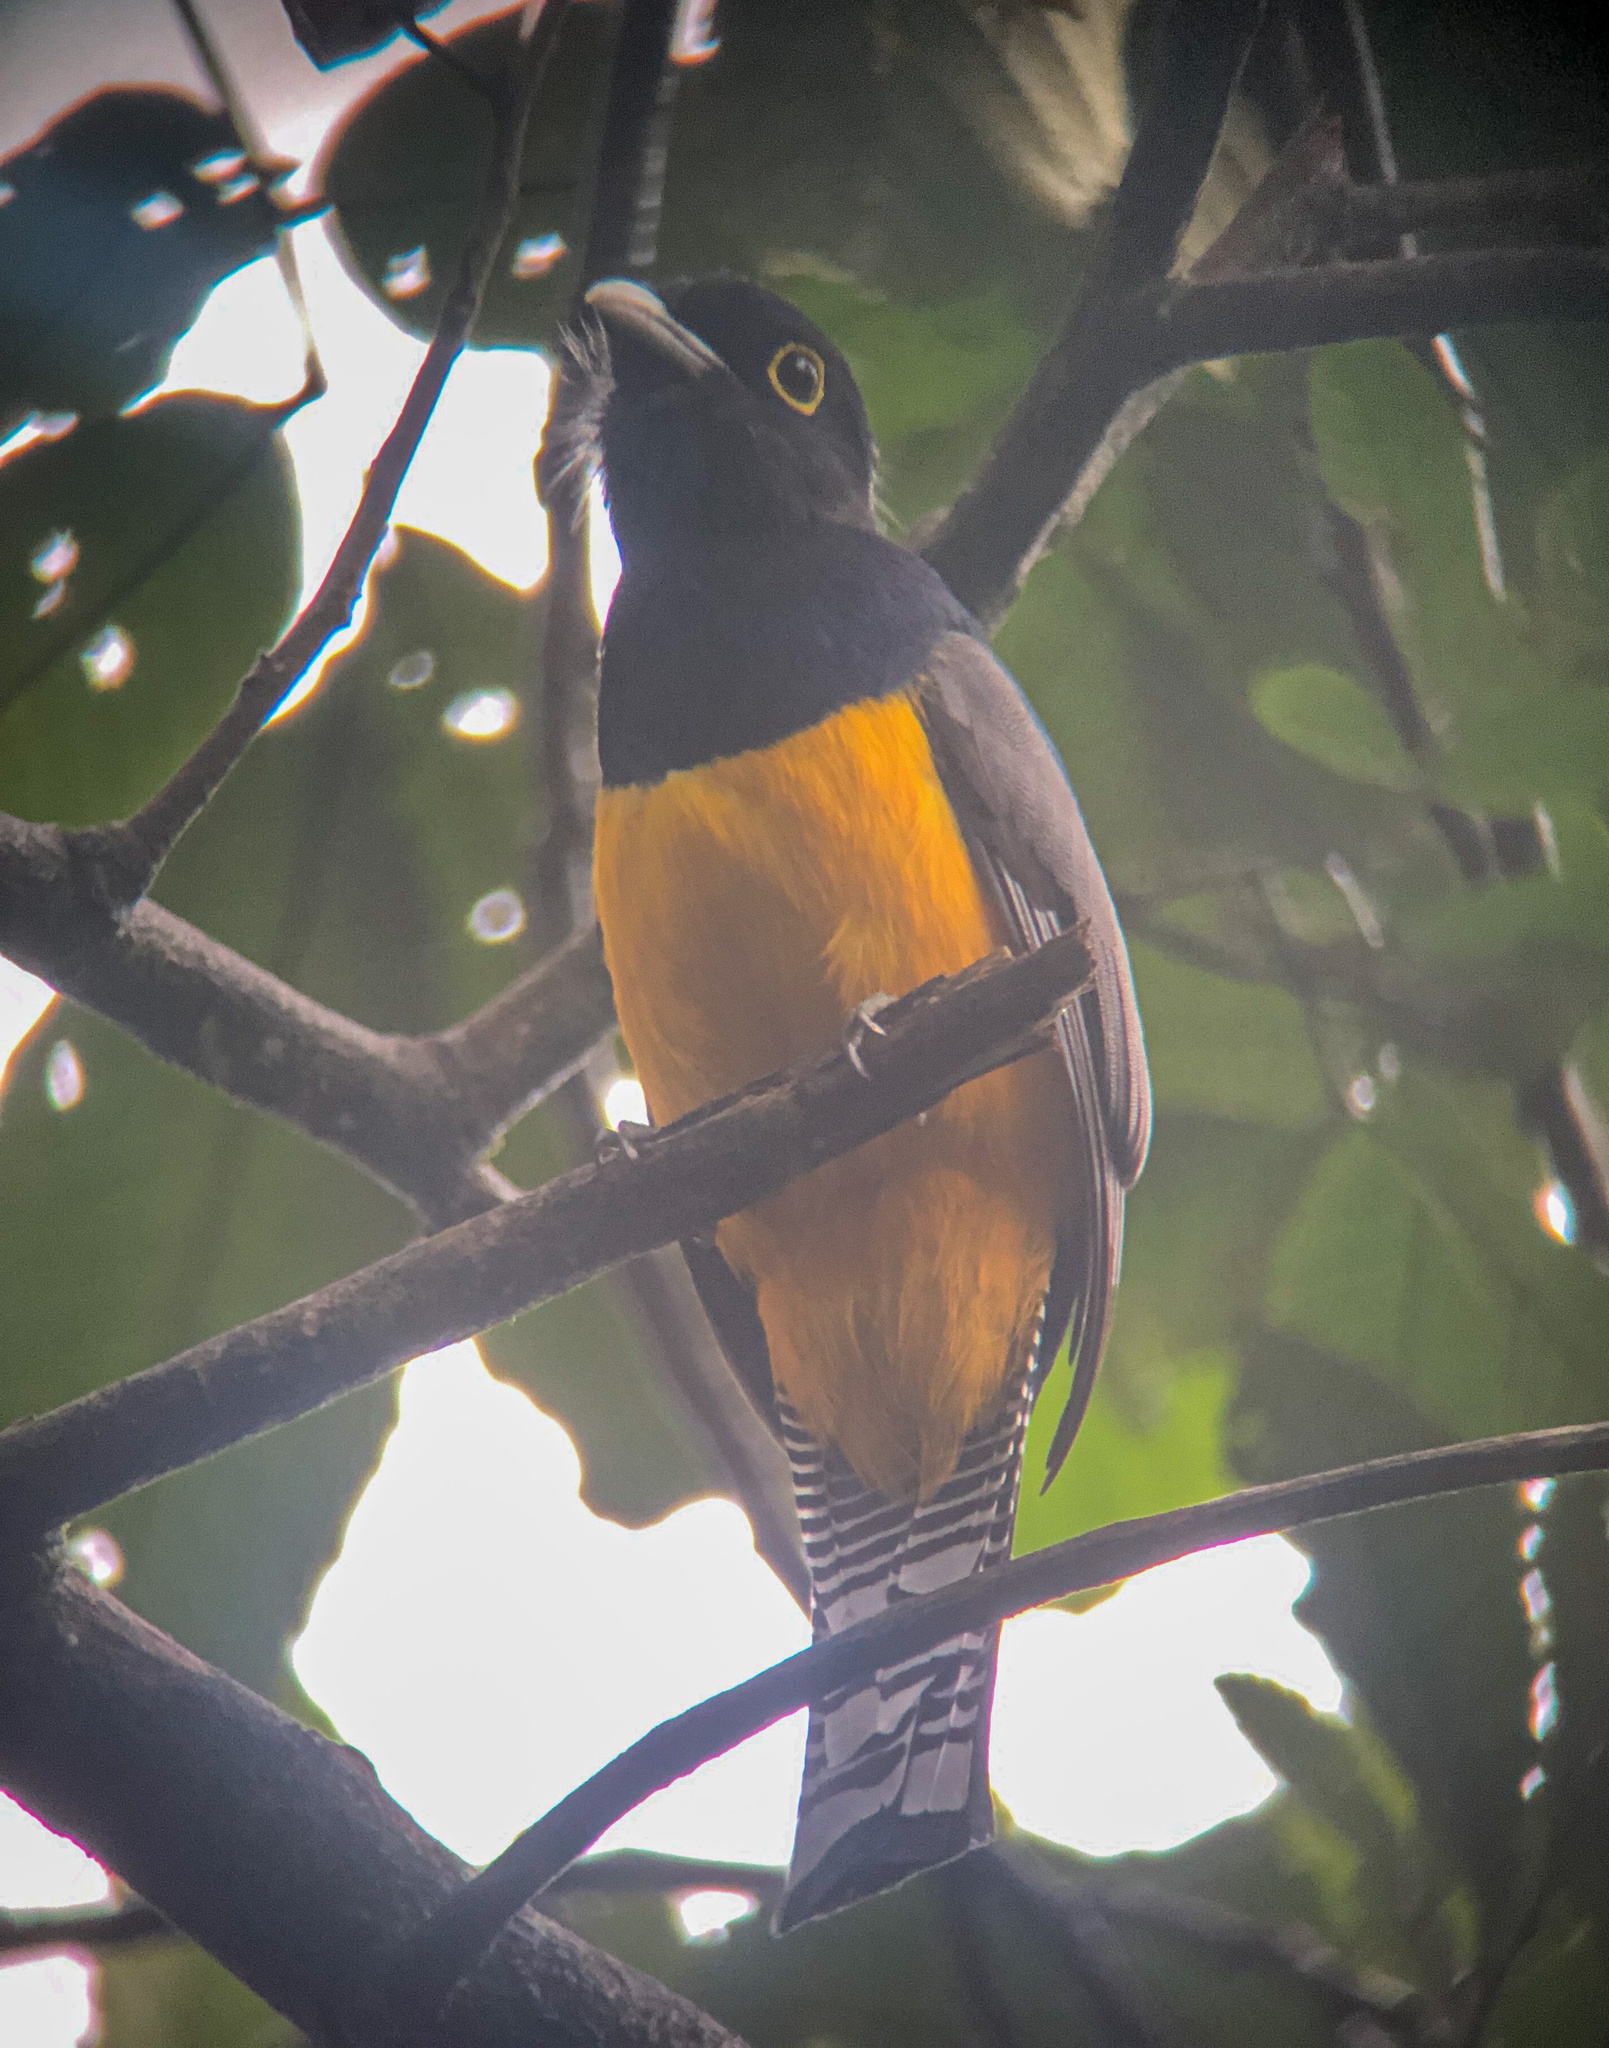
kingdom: Animalia
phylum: Chordata
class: Aves
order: Trogoniformes
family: Trogonidae
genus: Trogon
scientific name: Trogon caligatus
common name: Gartered trogon
